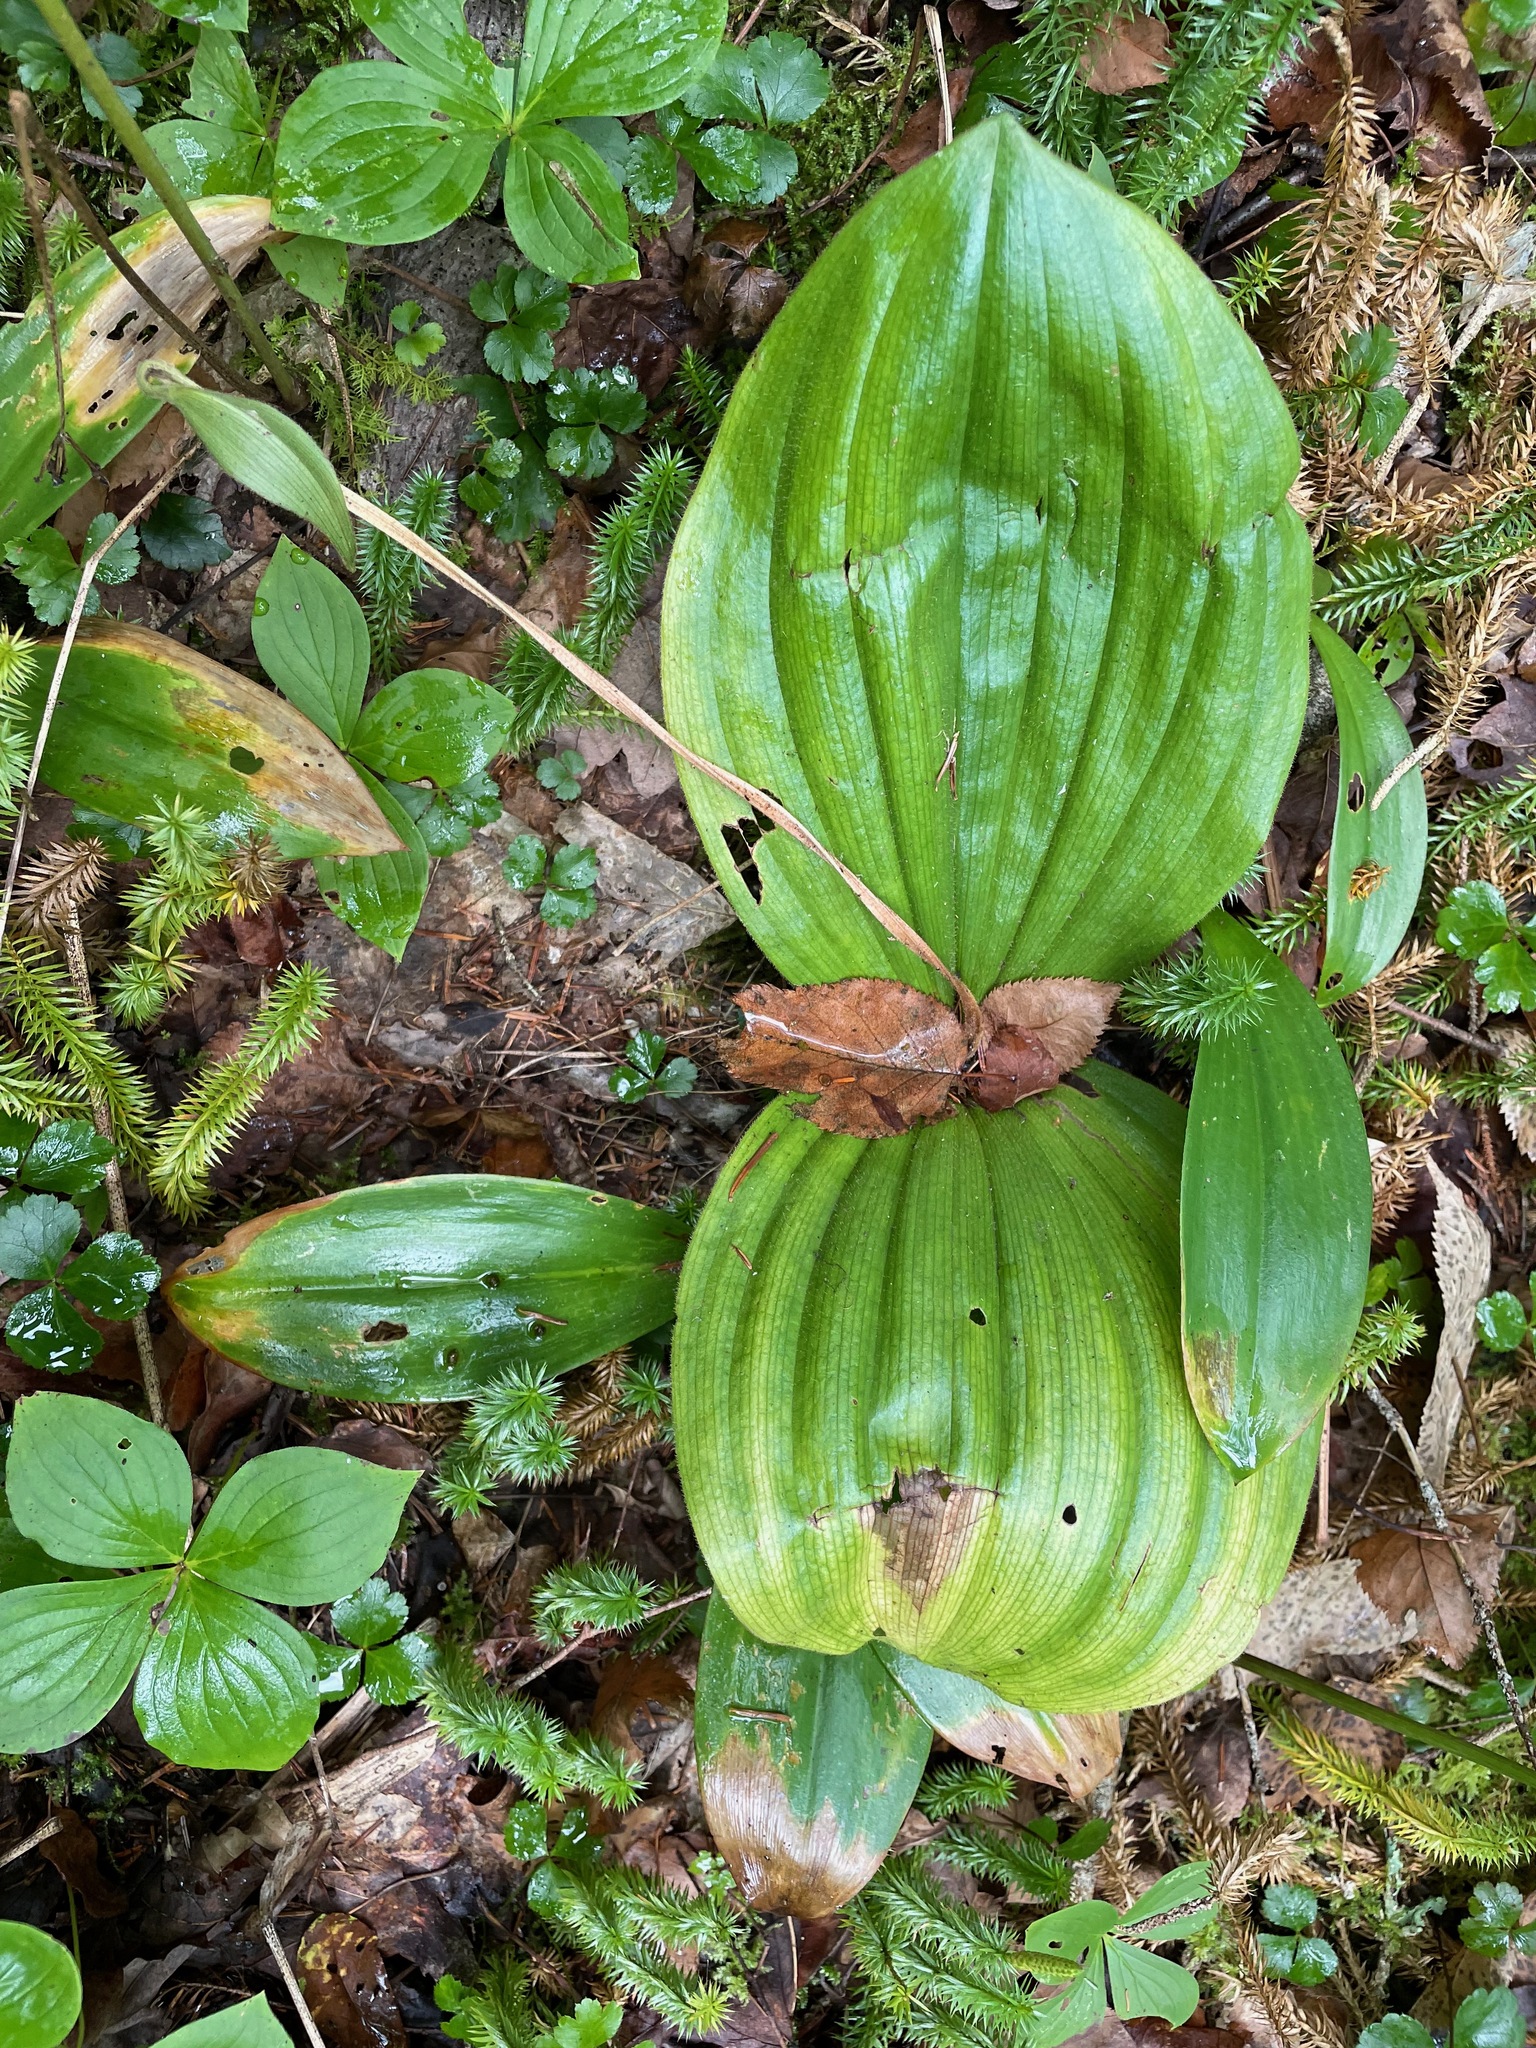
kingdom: Plantae
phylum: Tracheophyta
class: Liliopsida
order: Asparagales
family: Orchidaceae
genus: Cypripedium
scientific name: Cypripedium acaule
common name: Pink lady's-slipper
